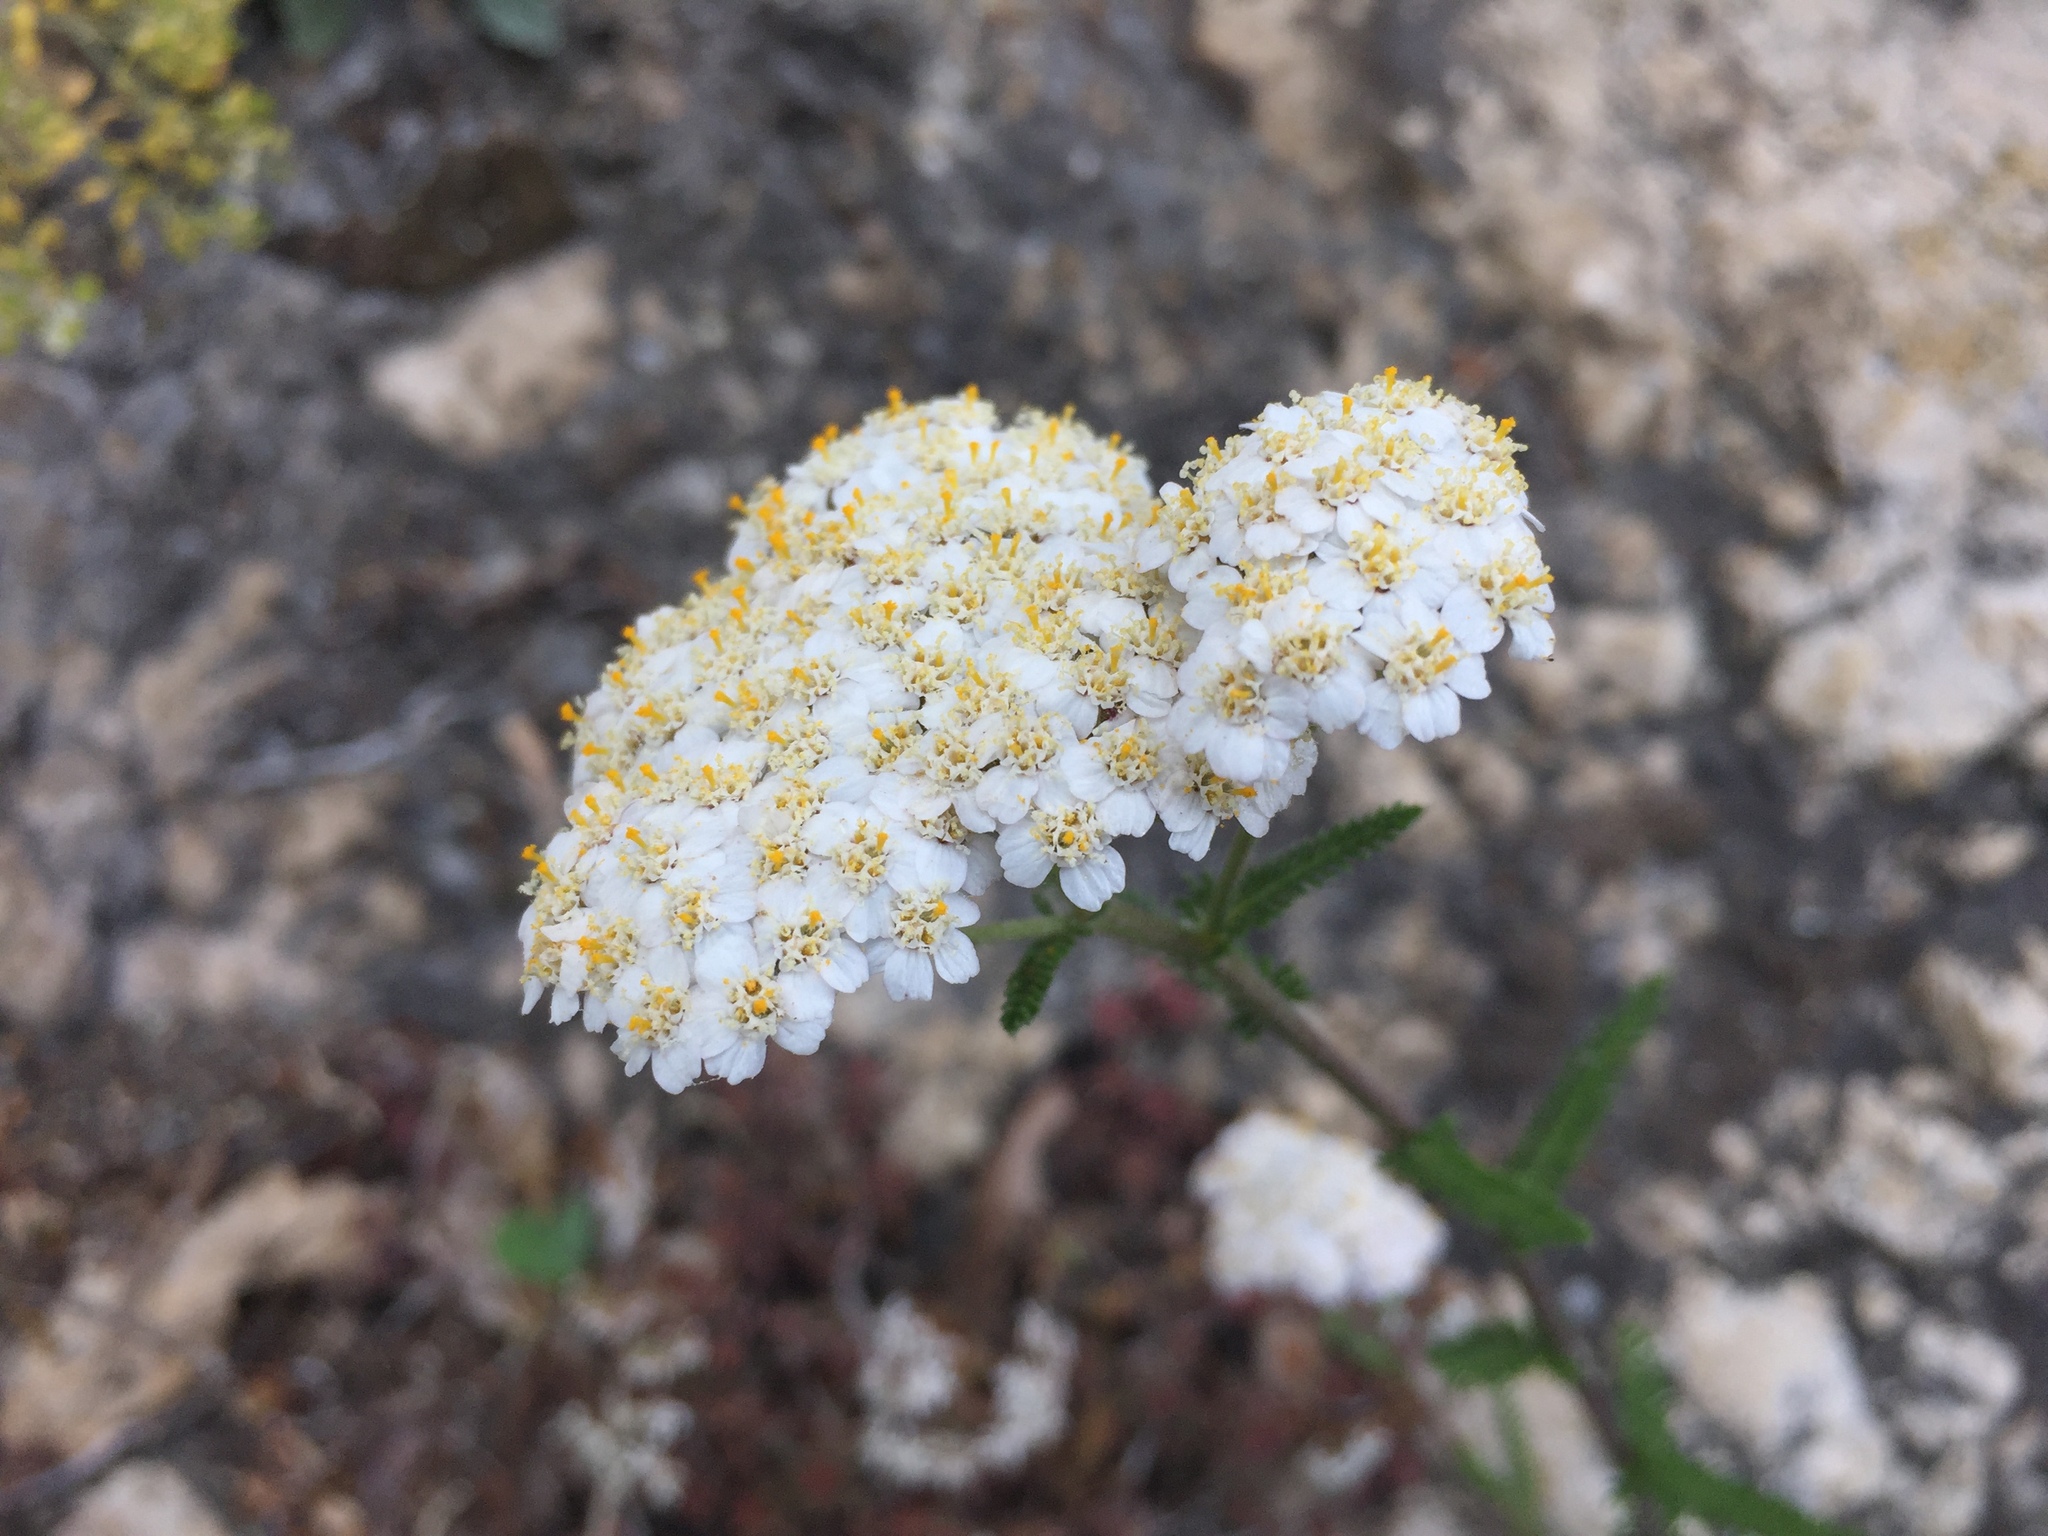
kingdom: Plantae
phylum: Tracheophyta
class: Magnoliopsida
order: Asterales
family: Asteraceae
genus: Achillea
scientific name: Achillea millefolium
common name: Yarrow
